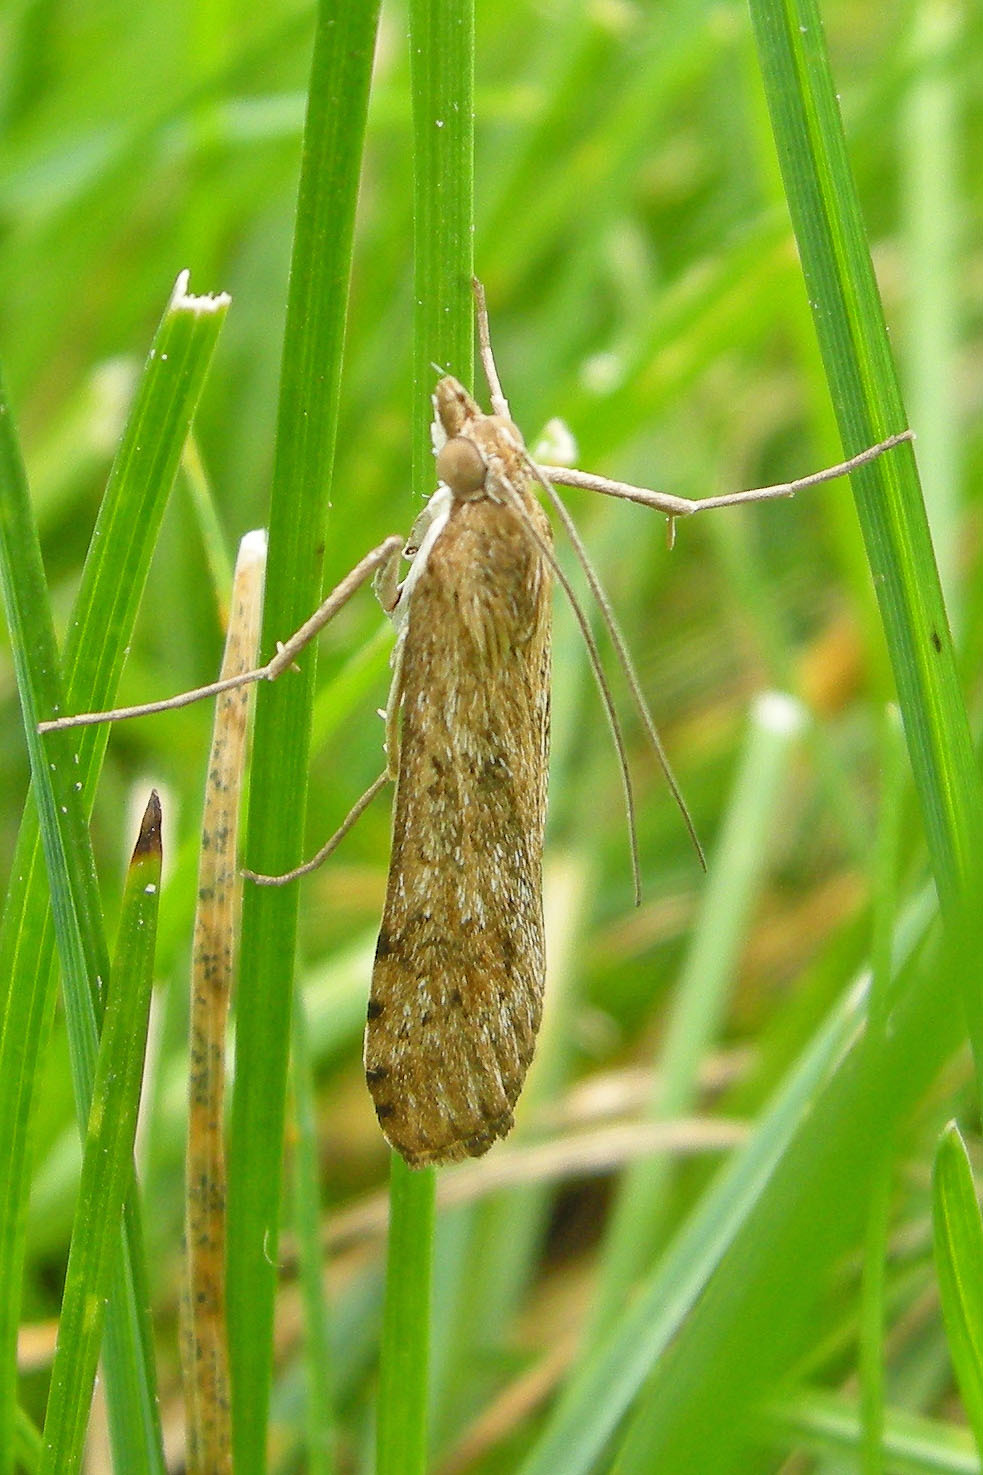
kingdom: Animalia
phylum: Arthropoda
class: Insecta
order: Lepidoptera
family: Crambidae
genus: Nomophila
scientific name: Nomophila nearctica
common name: American rush veneer
